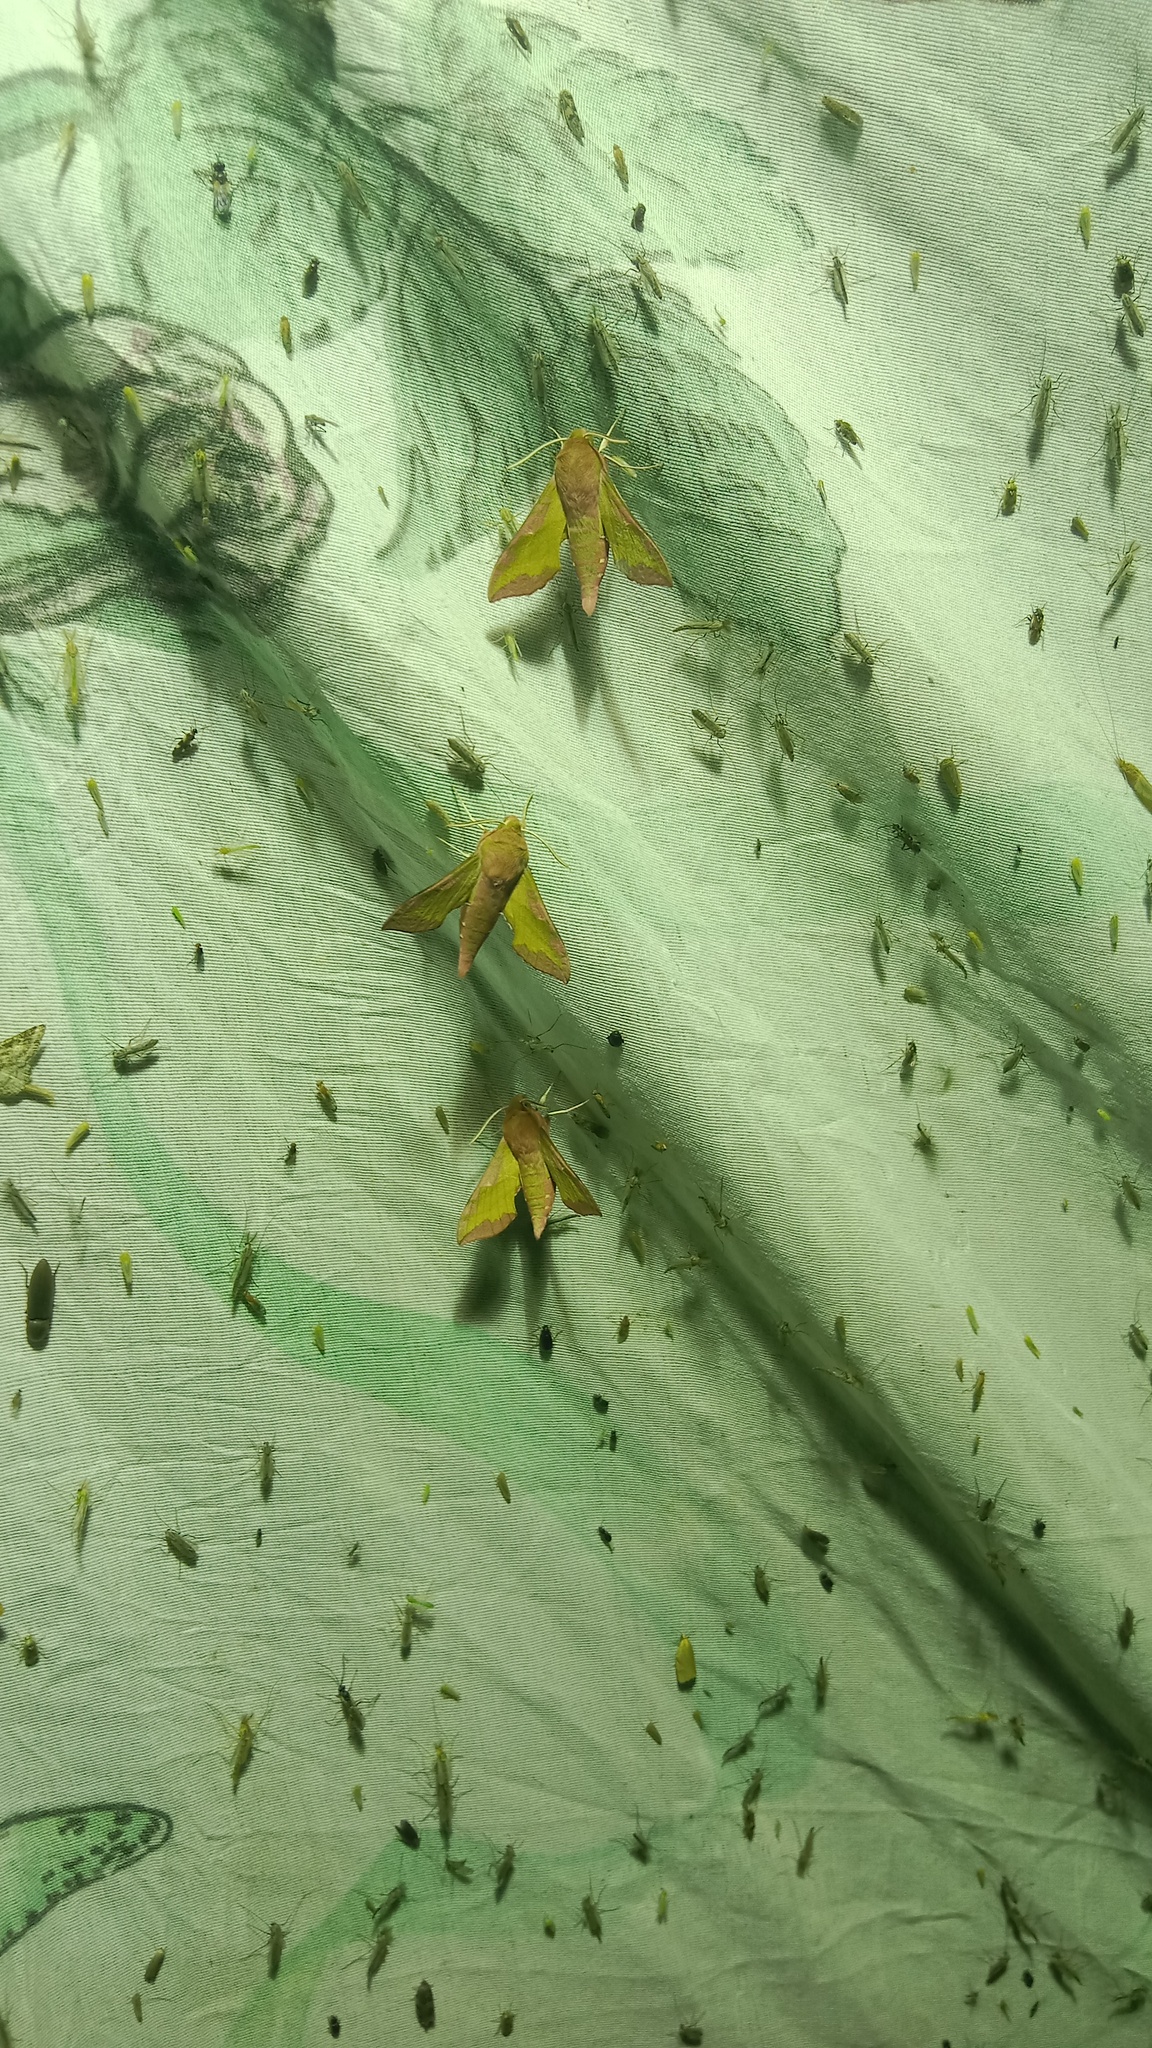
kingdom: Animalia
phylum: Arthropoda
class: Insecta
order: Lepidoptera
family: Sphingidae
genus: Deilephila
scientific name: Deilephila porcellus
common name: Small elephant hawk-moth
